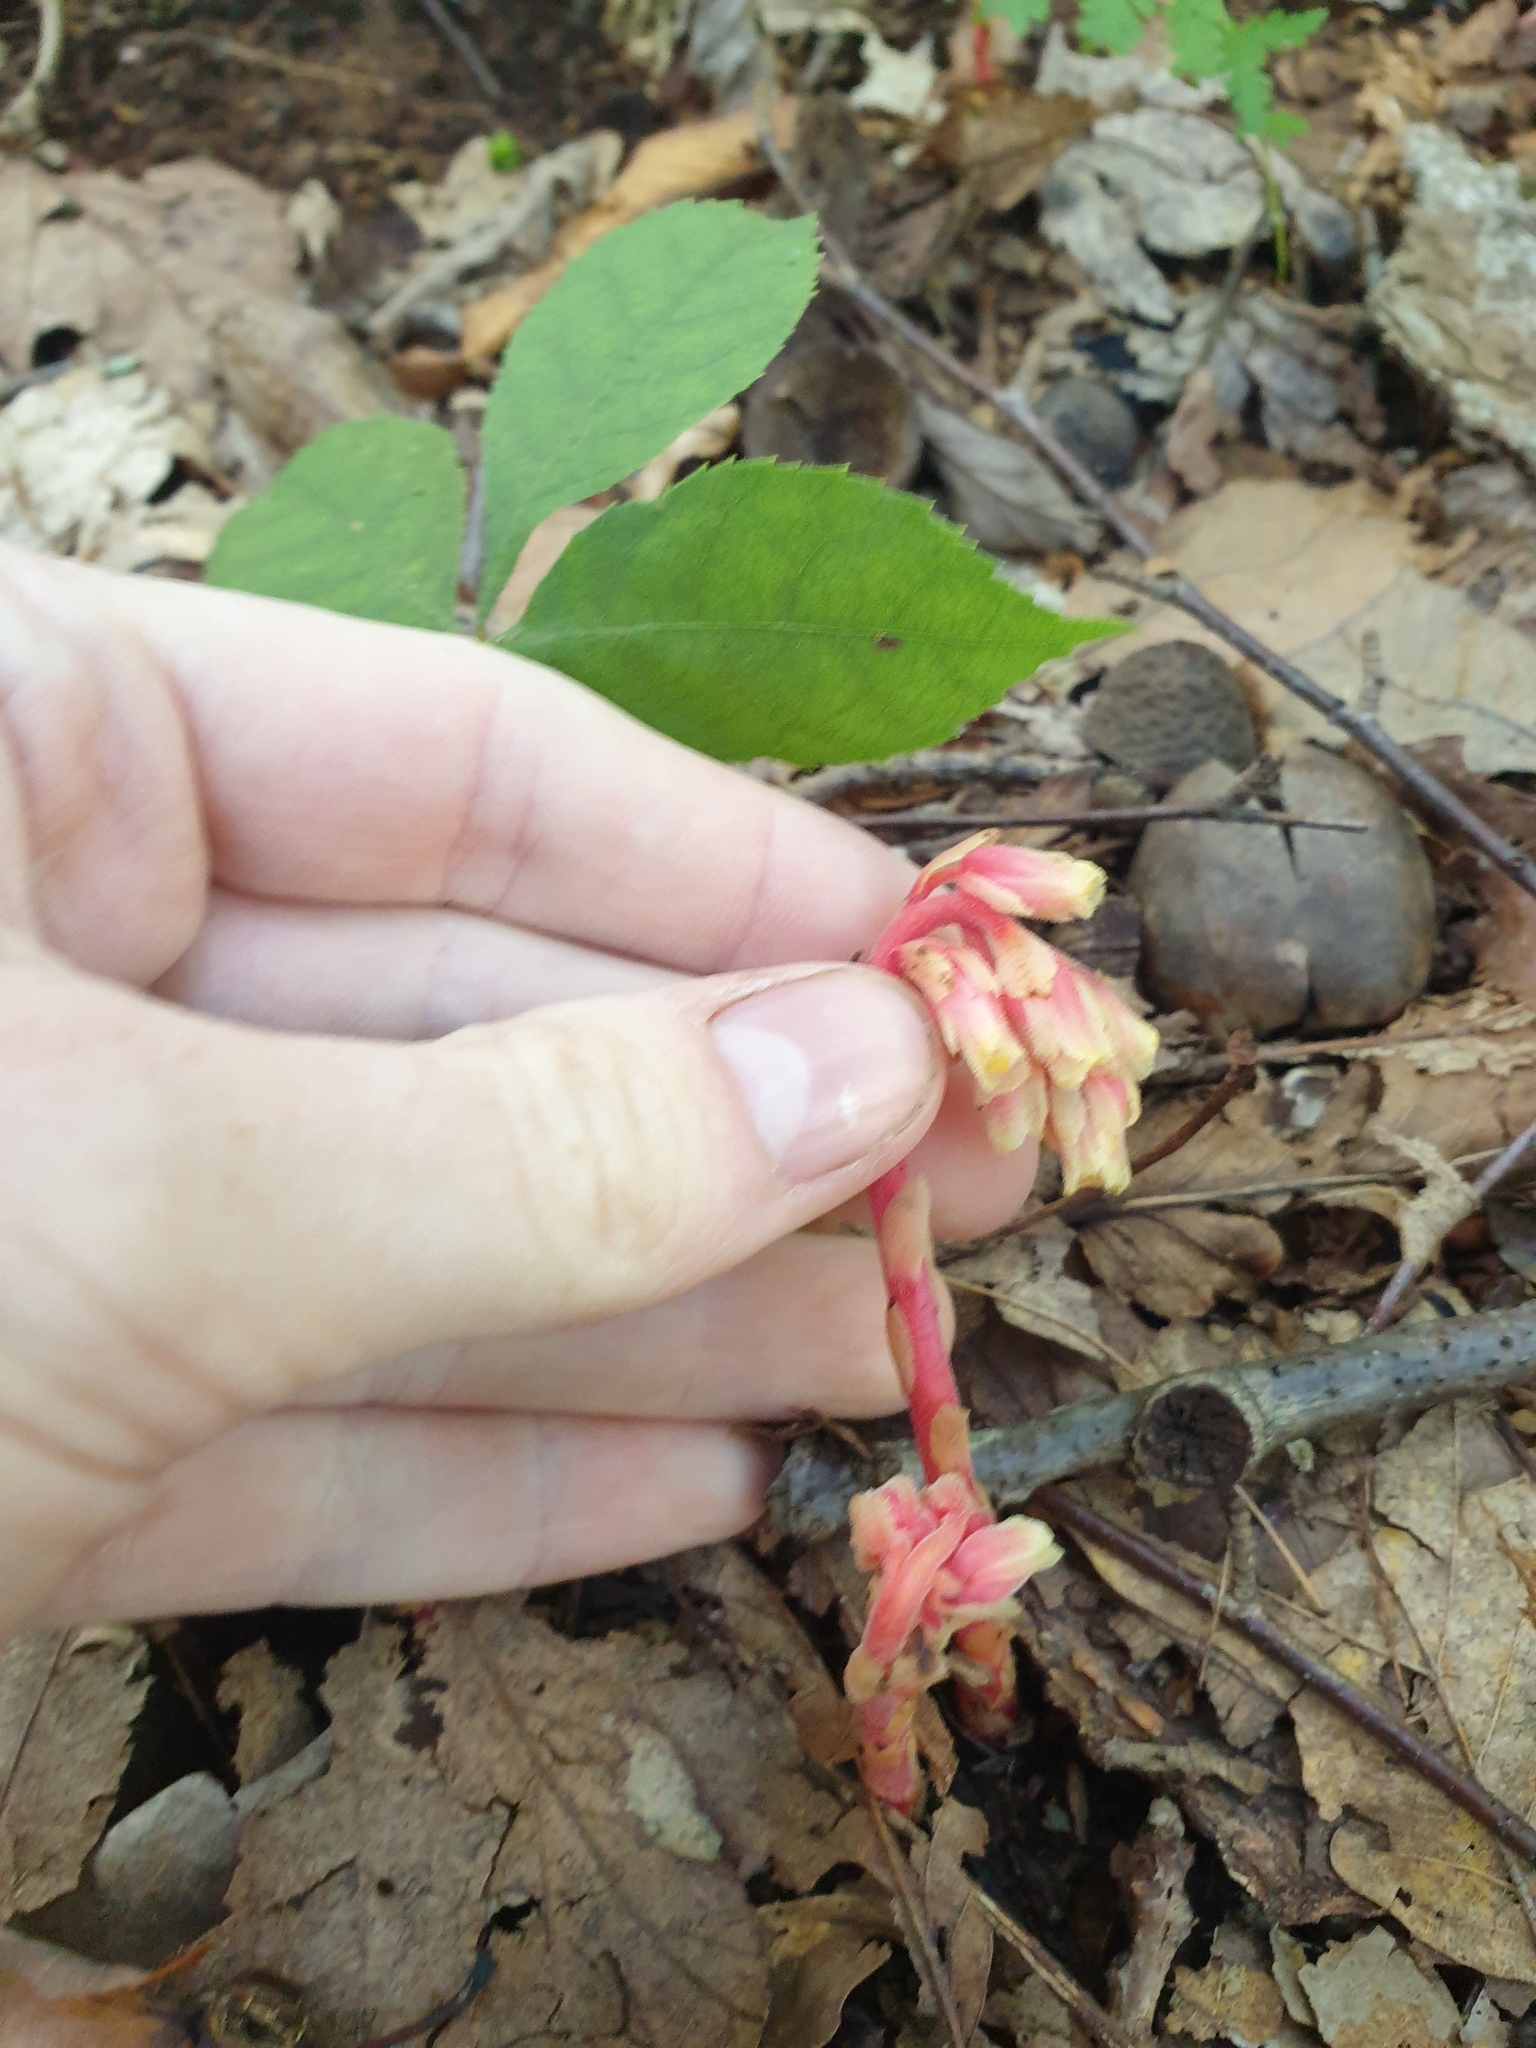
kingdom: Plantae
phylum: Tracheophyta
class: Magnoliopsida
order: Ericales
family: Ericaceae
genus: Hypopitys
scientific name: Hypopitys monotropa
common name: Yellow bird's-nest
